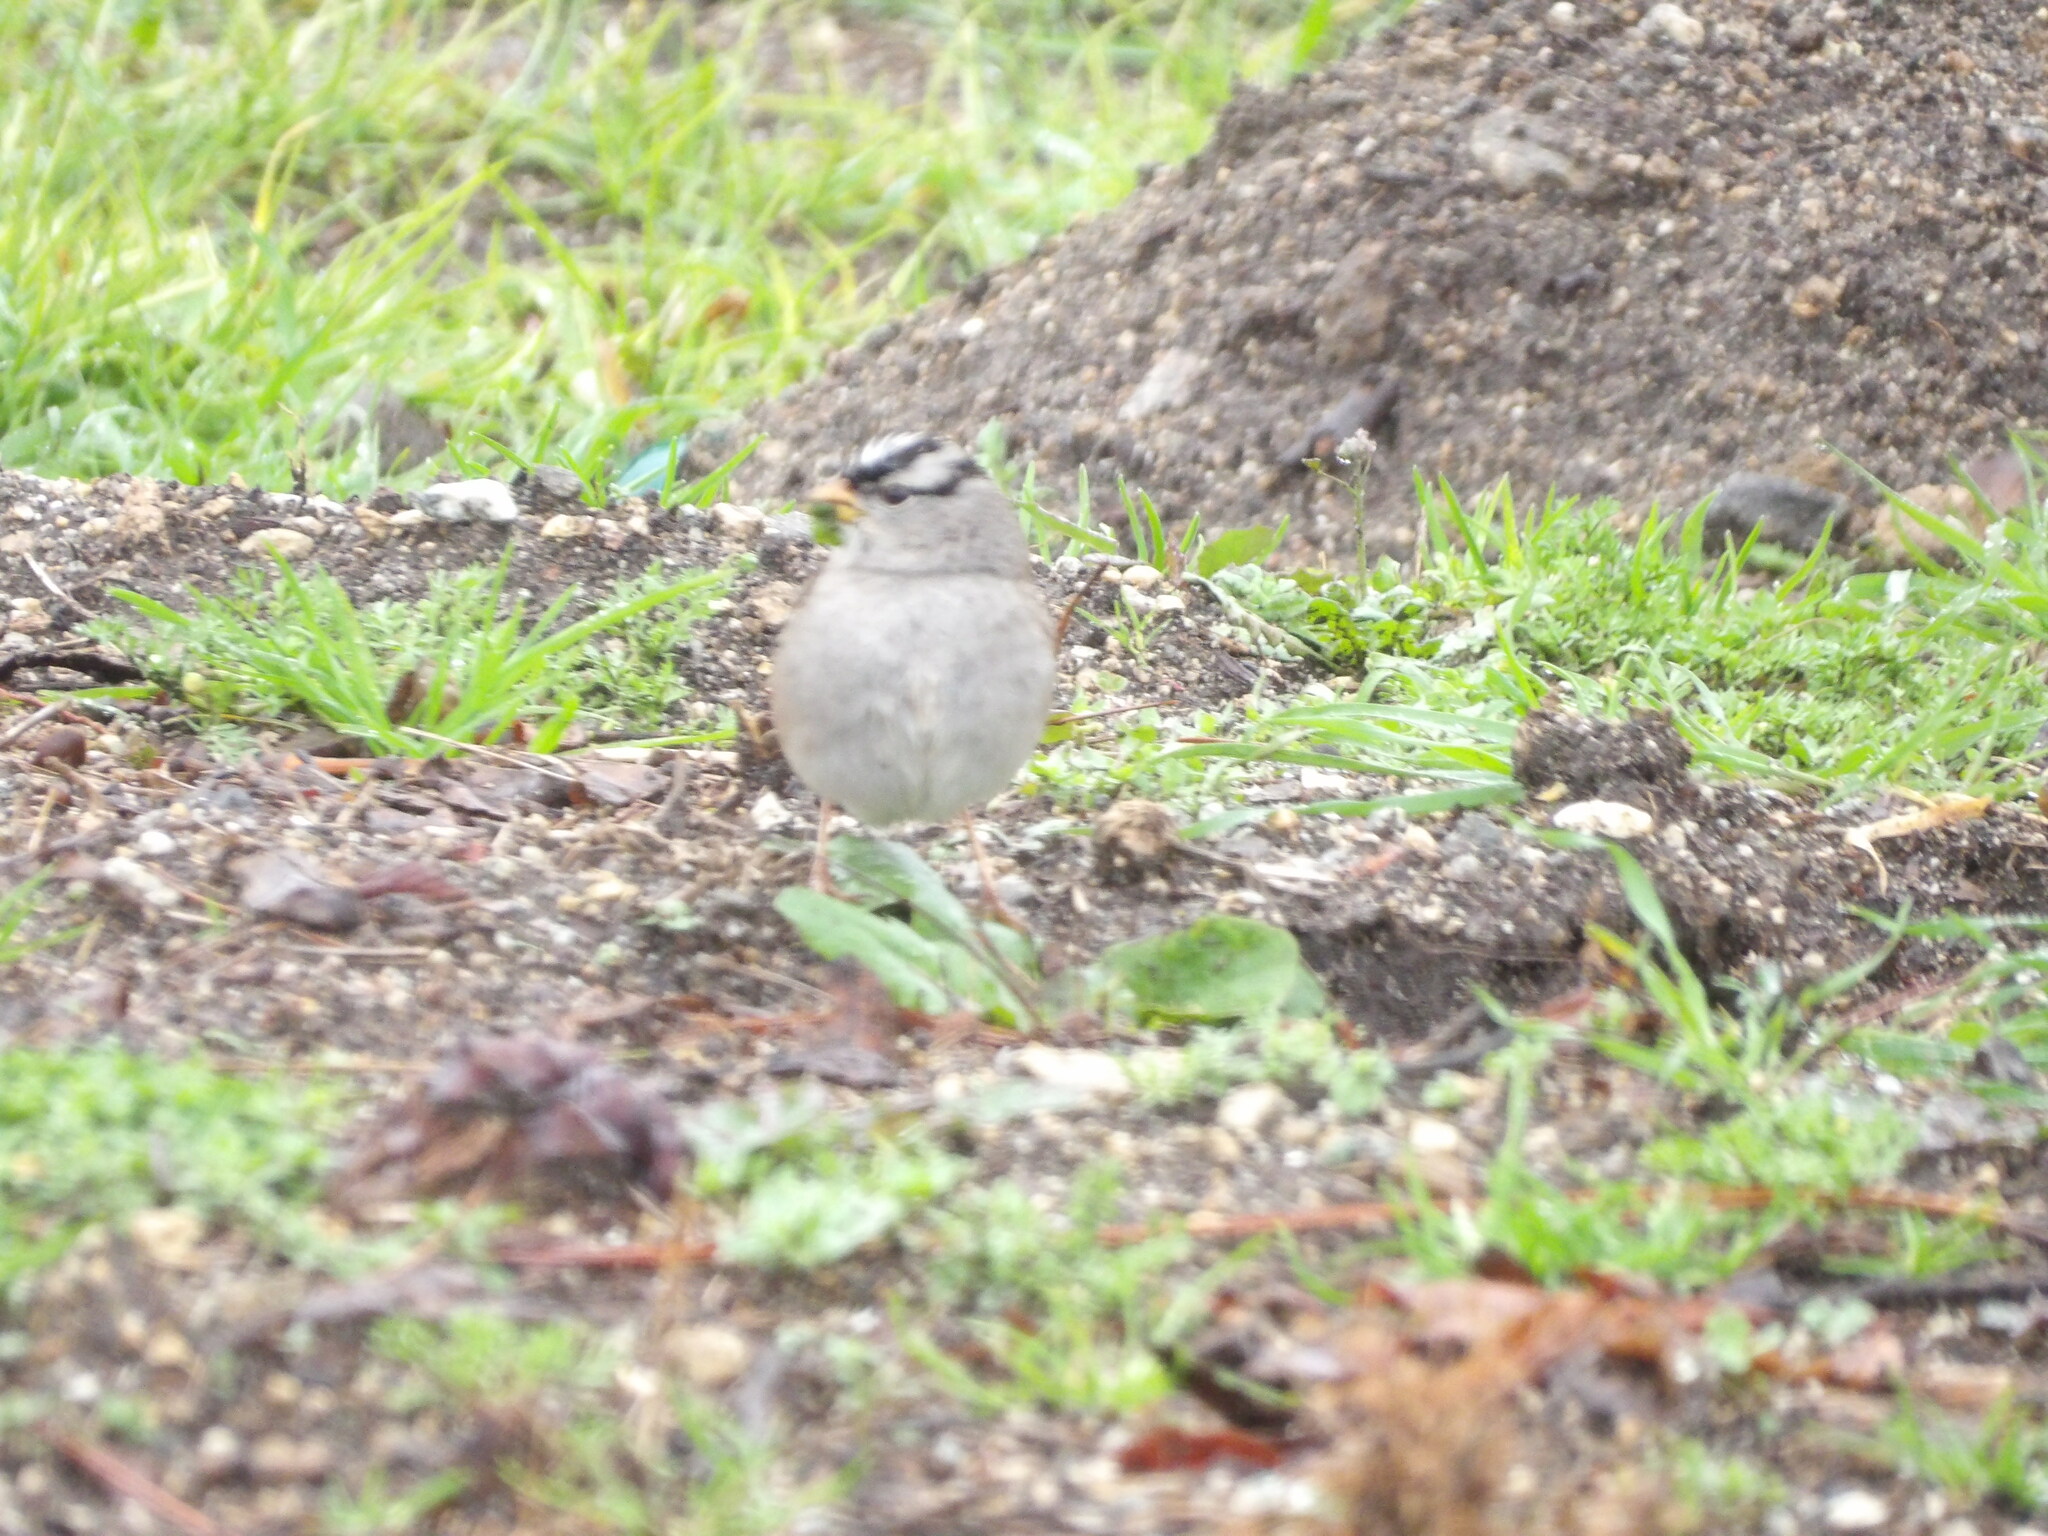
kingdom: Animalia
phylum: Chordata
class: Aves
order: Passeriformes
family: Passerellidae
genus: Zonotrichia
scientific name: Zonotrichia leucophrys
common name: White-crowned sparrow
